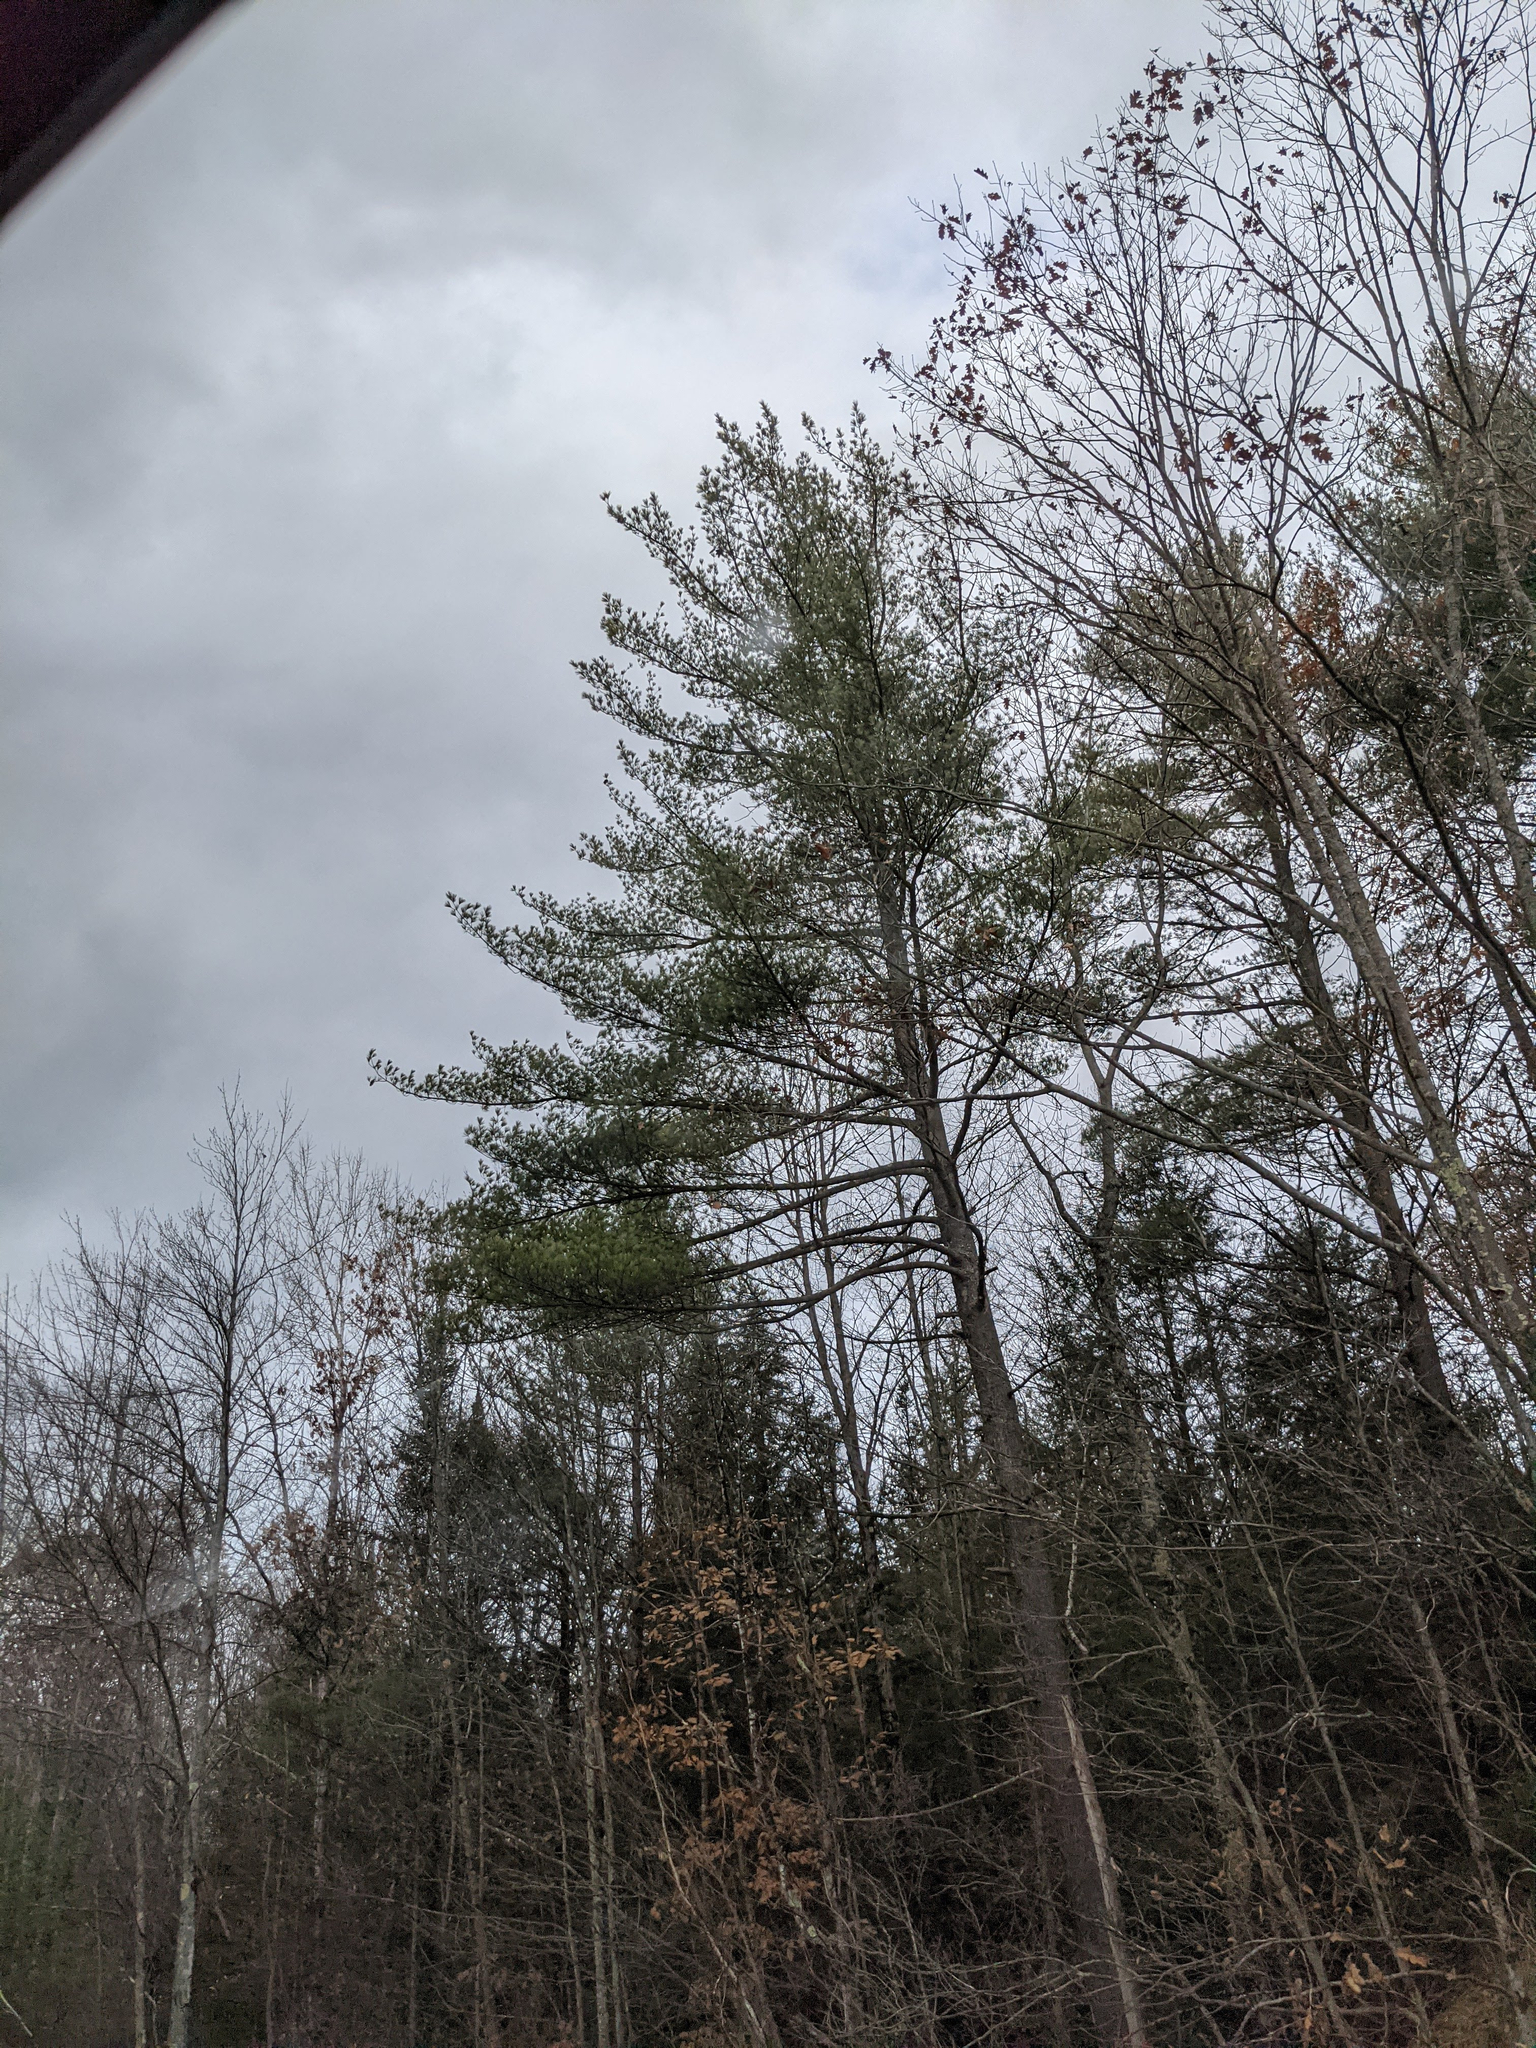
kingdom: Plantae
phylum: Tracheophyta
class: Pinopsida
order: Pinales
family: Pinaceae
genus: Pinus
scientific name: Pinus strobus
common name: Weymouth pine
